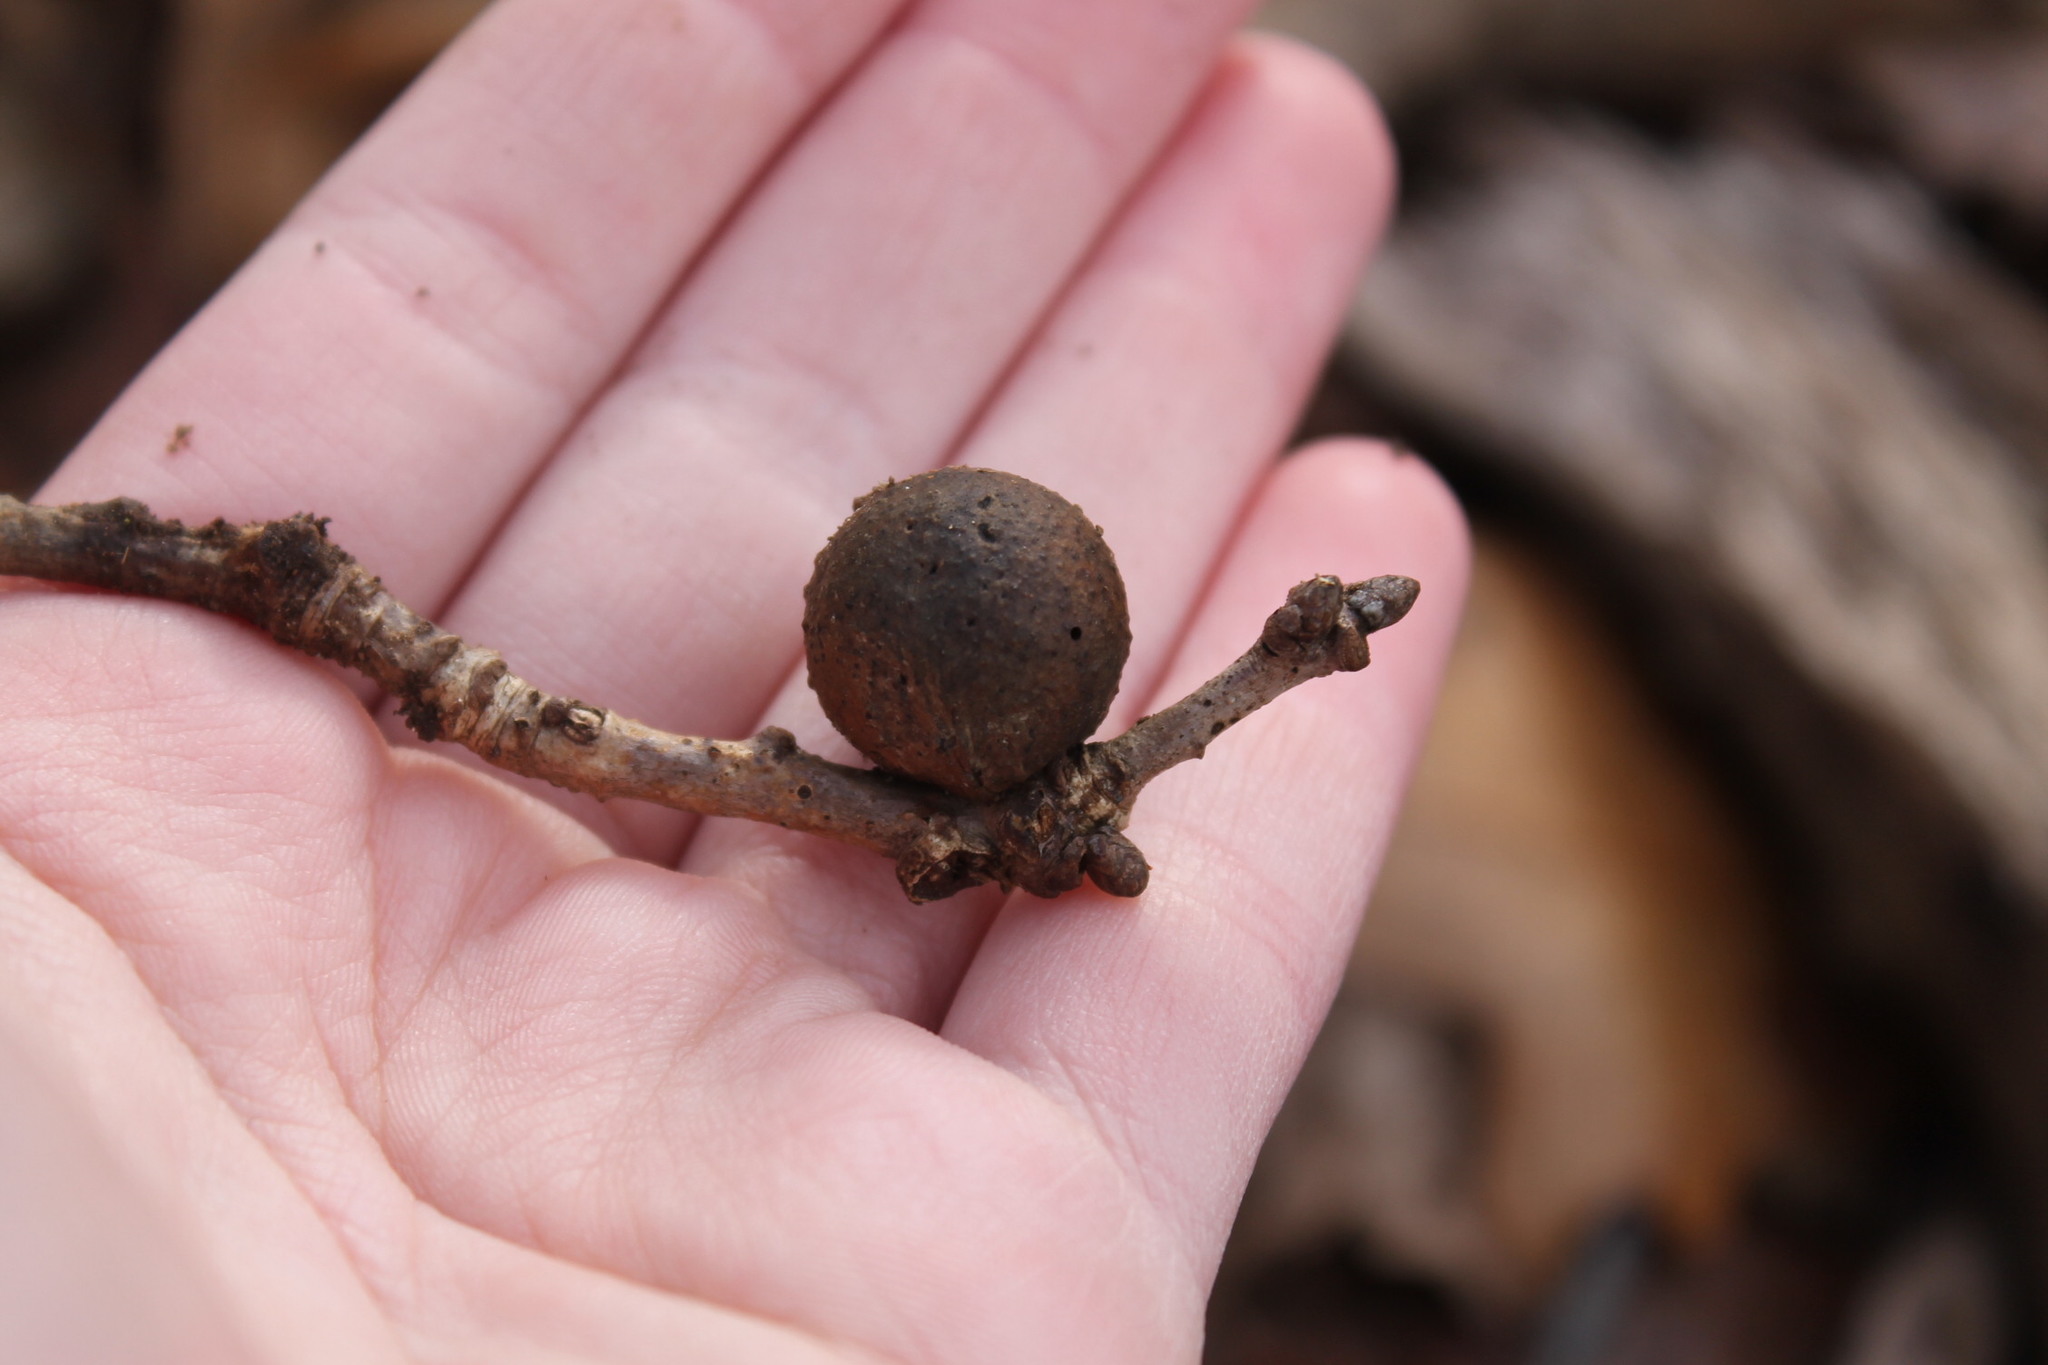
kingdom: Animalia
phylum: Arthropoda
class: Insecta
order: Hymenoptera
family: Cynipidae
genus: Disholcaspis
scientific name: Disholcaspis quercusglobulus
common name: Round bullet gall wasp
